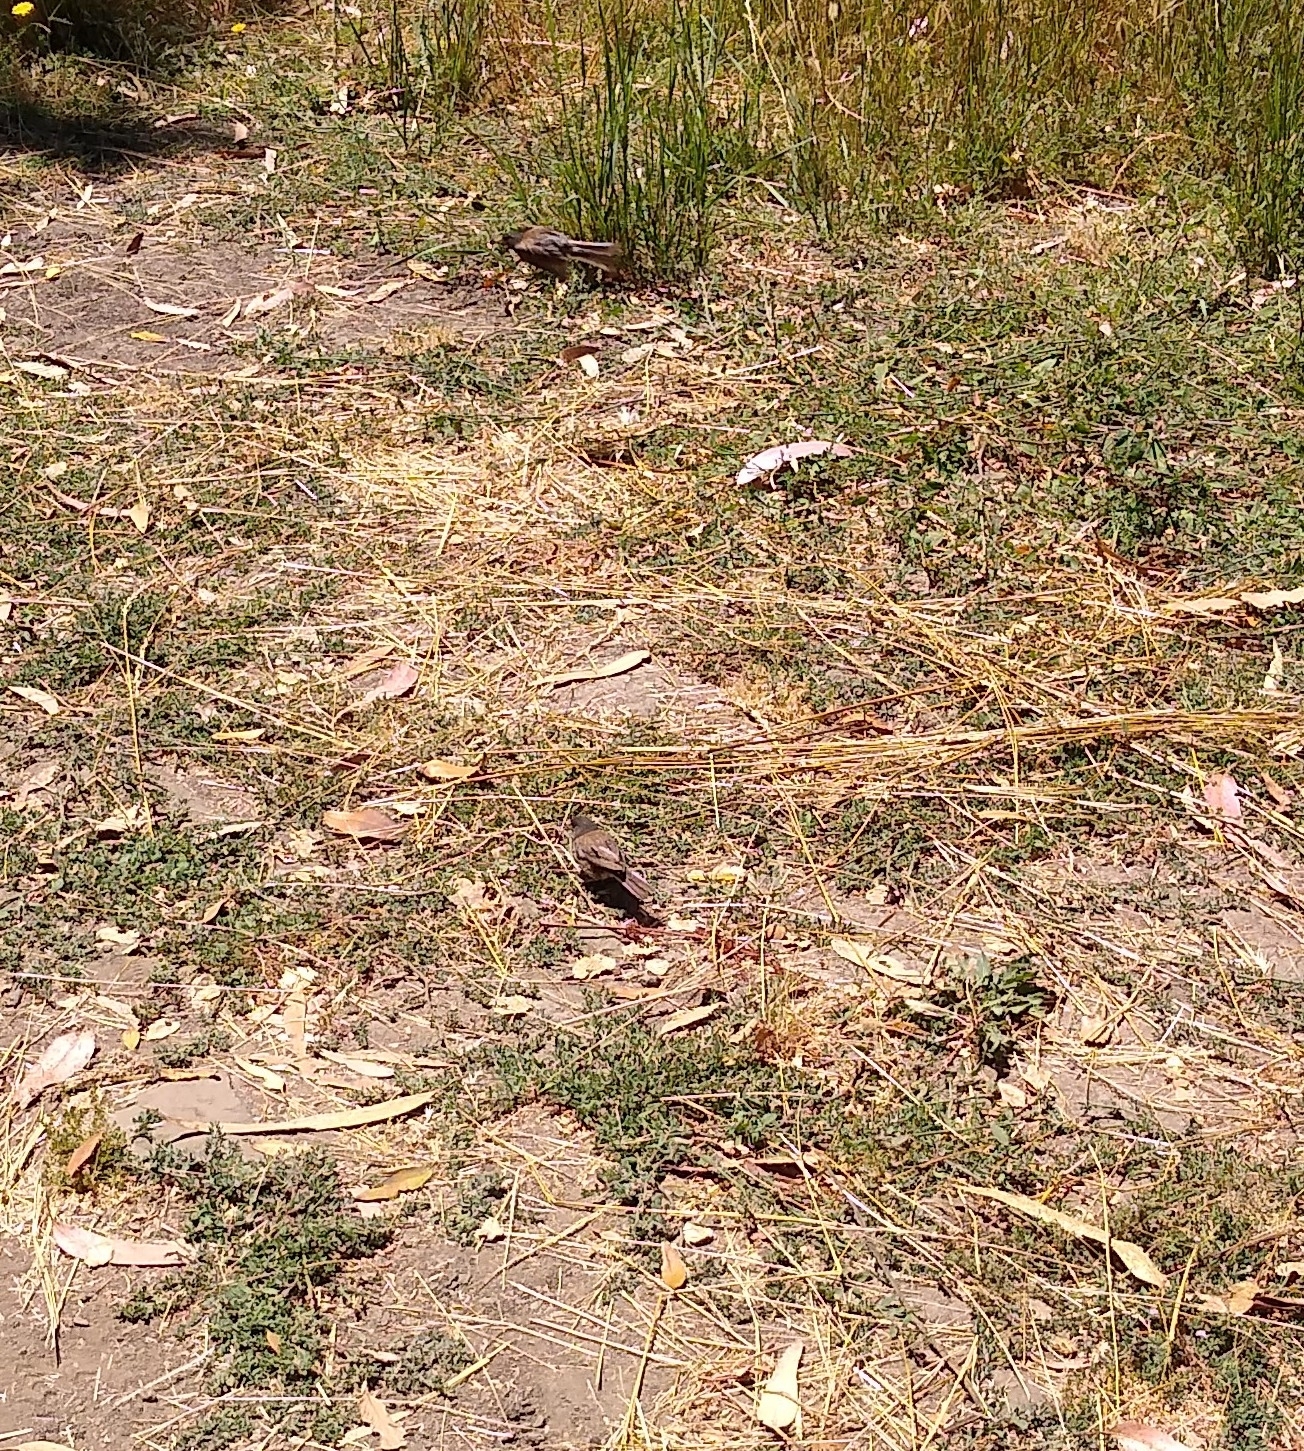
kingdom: Animalia
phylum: Chordata
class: Aves
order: Passeriformes
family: Passerellidae
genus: Junco
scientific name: Junco hyemalis
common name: Dark-eyed junco
